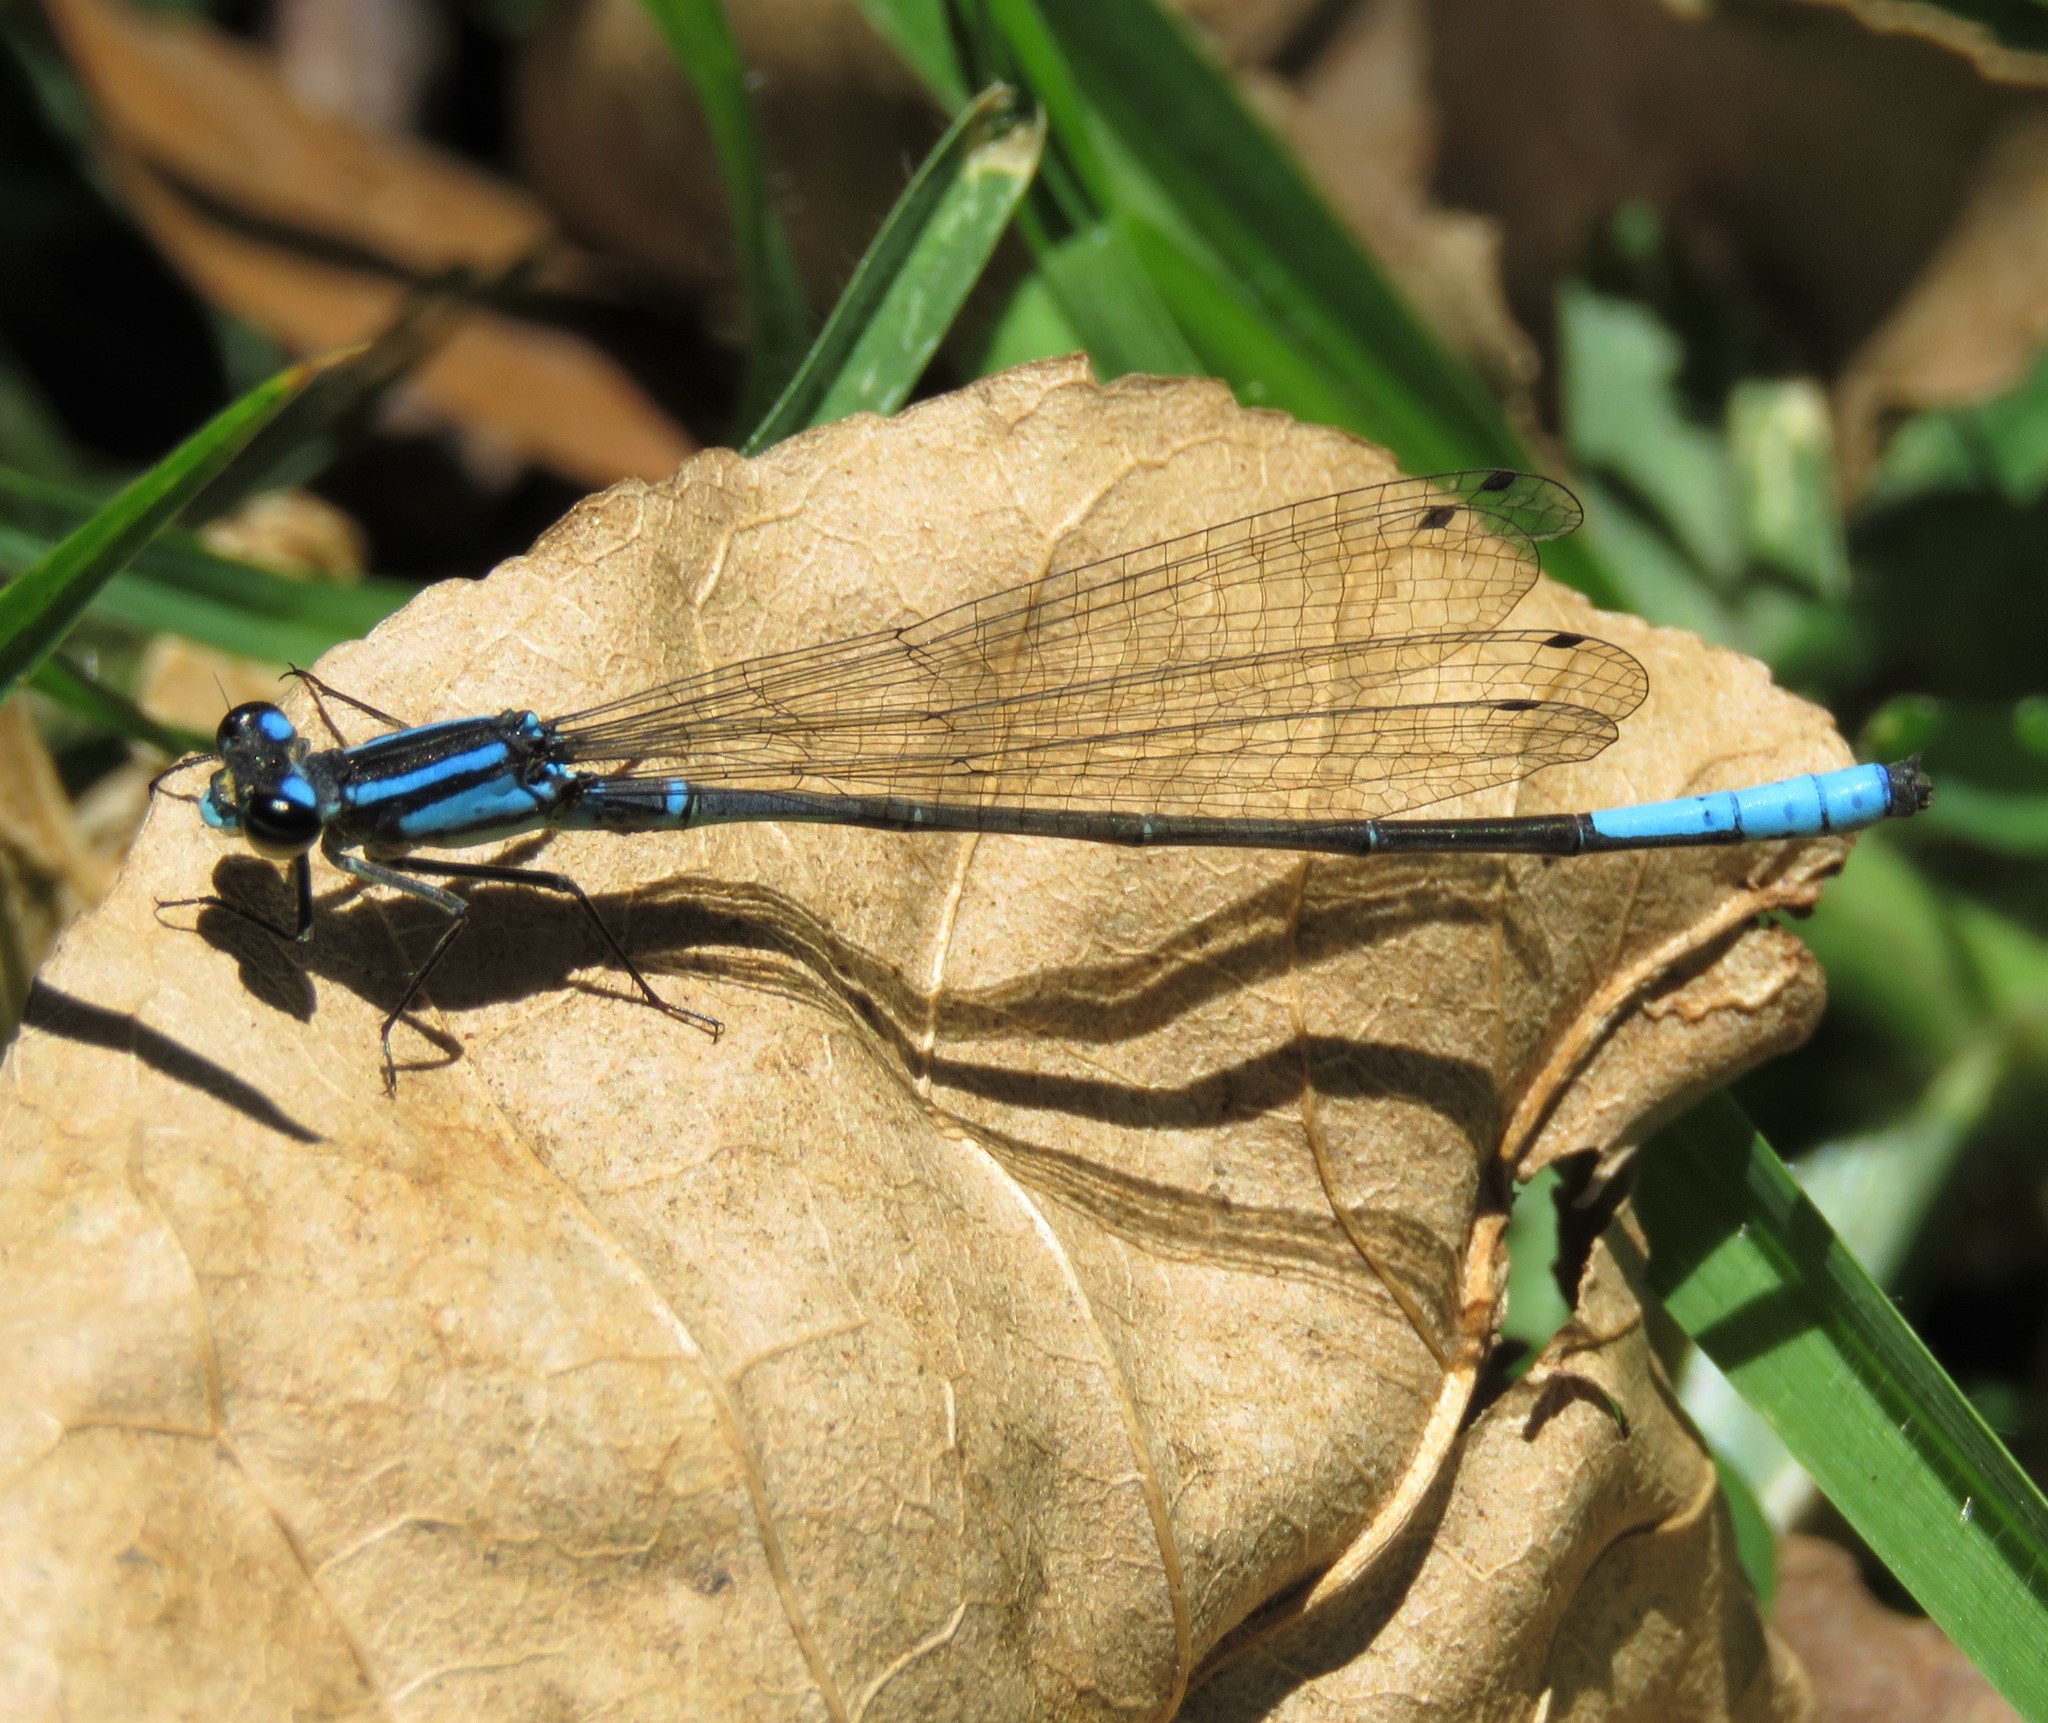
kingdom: Animalia
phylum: Arthropoda
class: Insecta
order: Odonata
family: Coenagrionidae
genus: Mesamphiagrion
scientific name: Mesamphiagrion laterale
